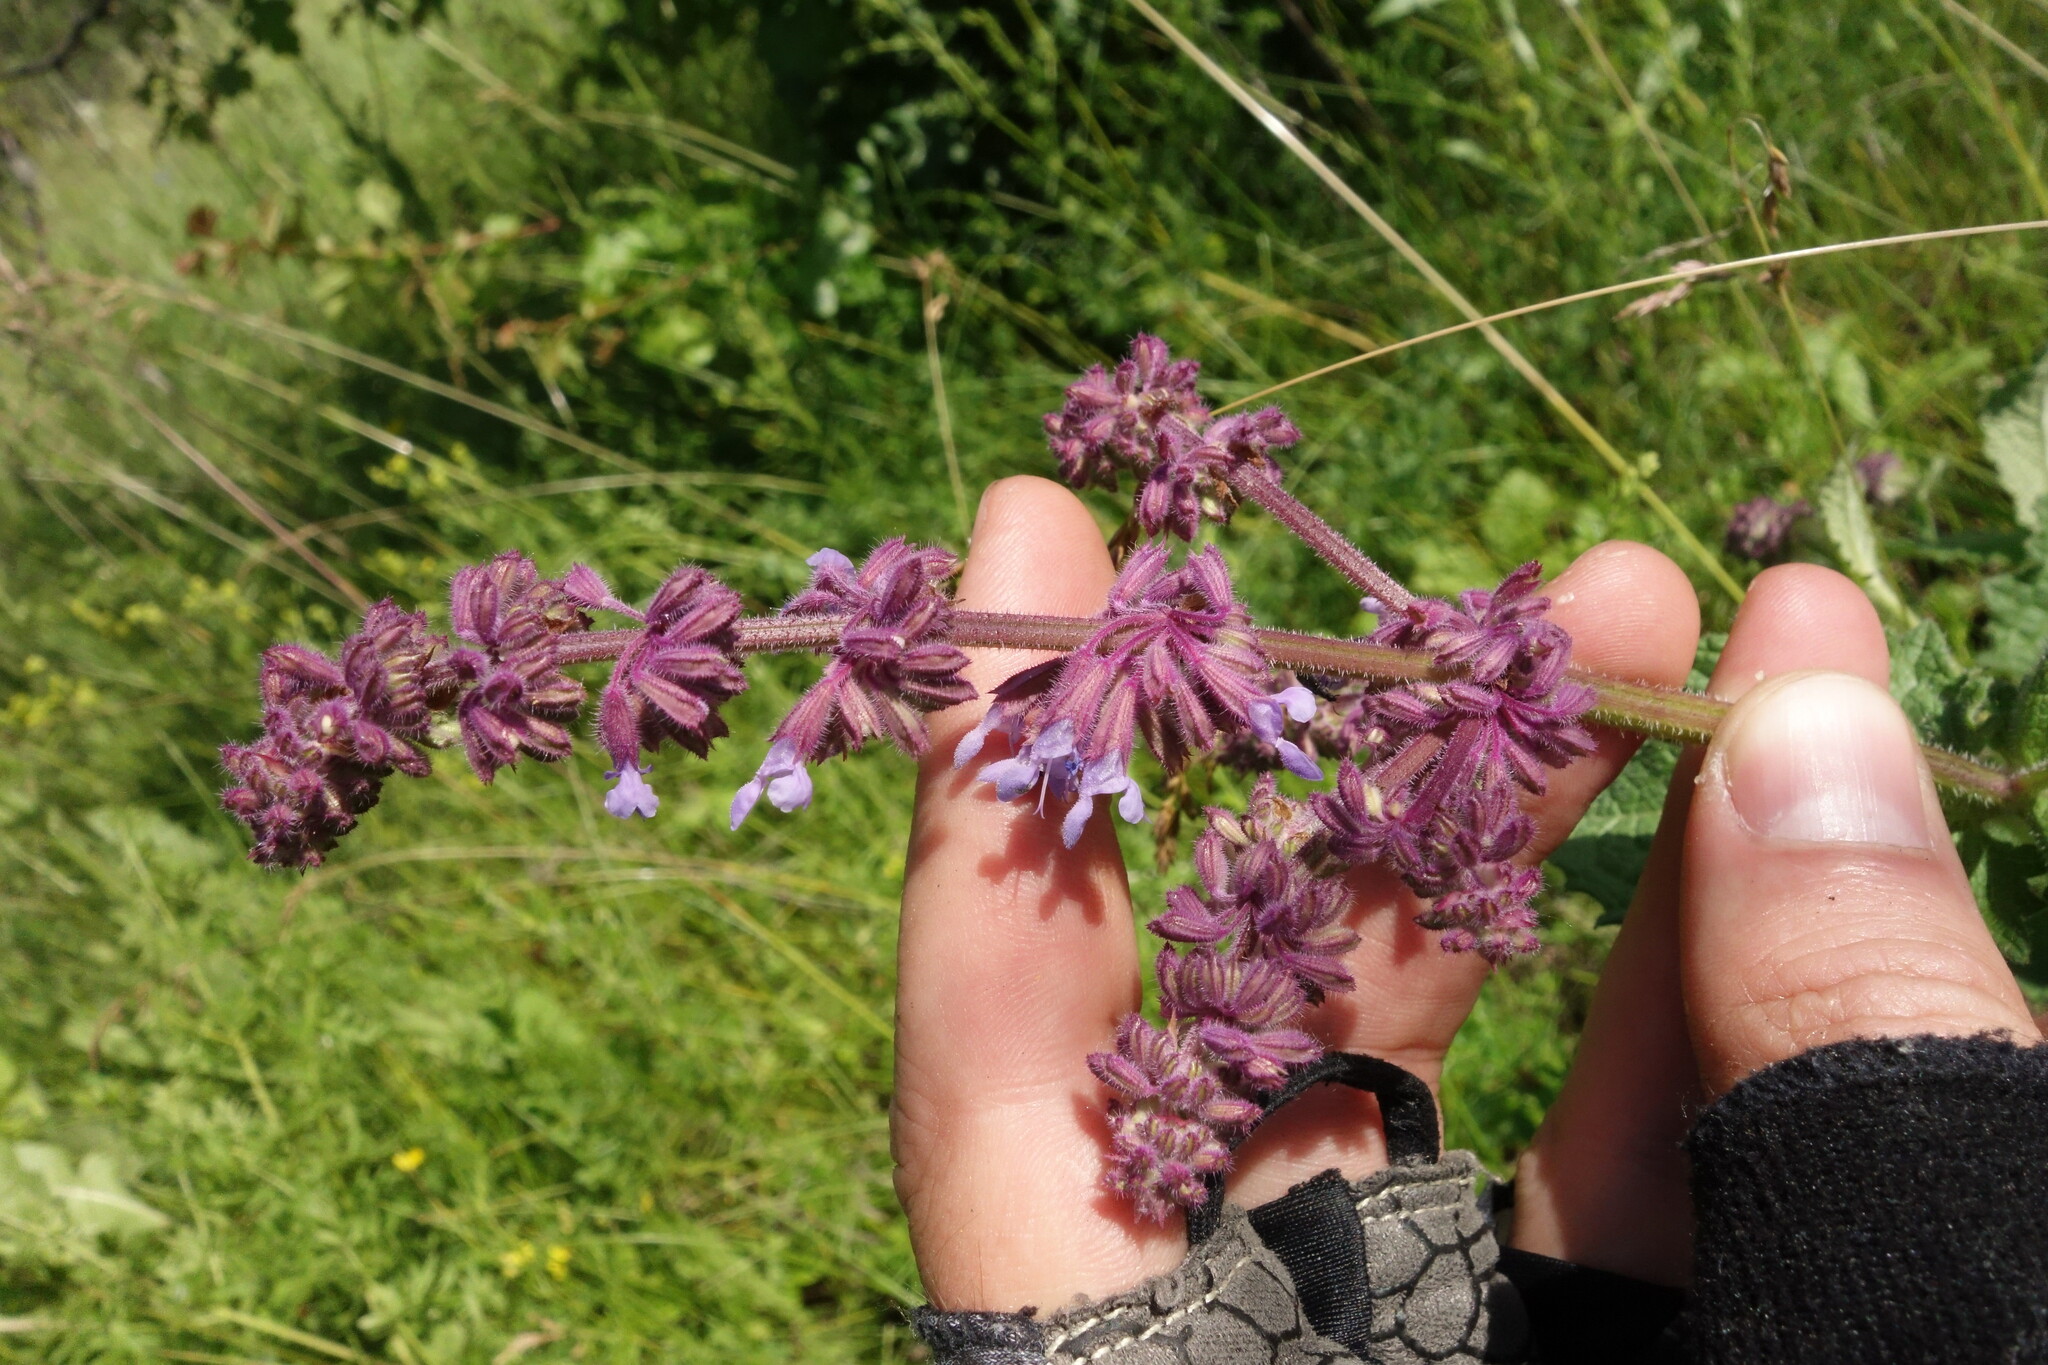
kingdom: Plantae
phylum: Tracheophyta
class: Magnoliopsida
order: Lamiales
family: Lamiaceae
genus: Salvia
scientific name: Salvia verticillata
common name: Whorled clary
